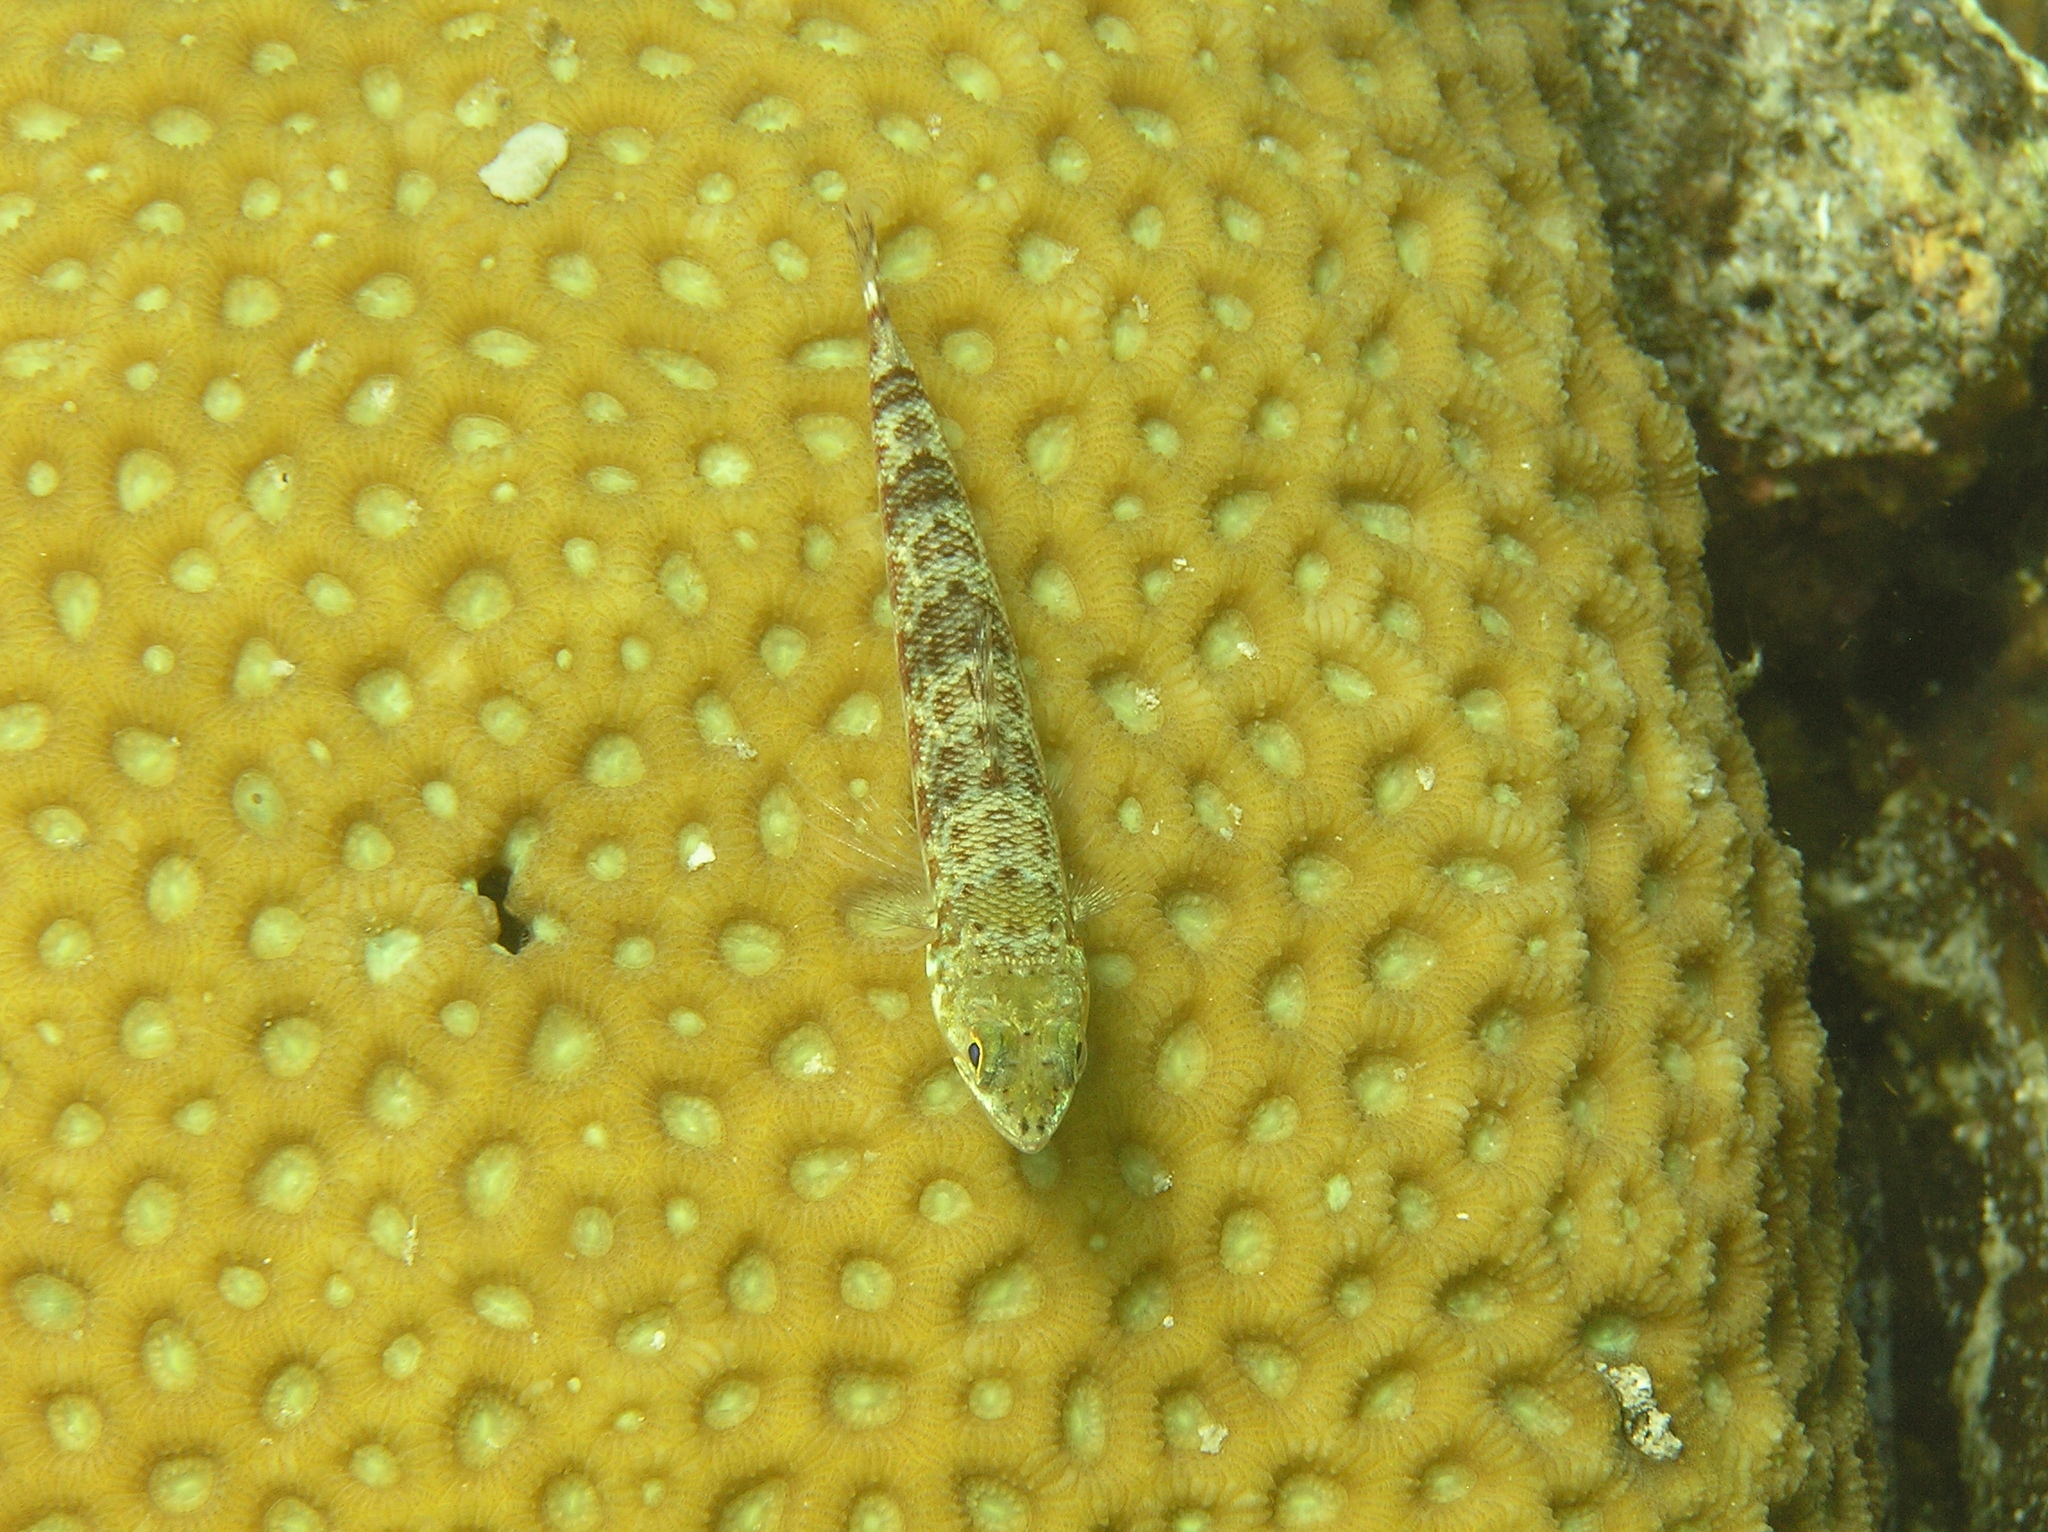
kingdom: Animalia
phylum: Chordata
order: Aulopiformes
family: Synodontidae
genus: Synodus
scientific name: Synodus variegatus
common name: Variegated lizardfish
